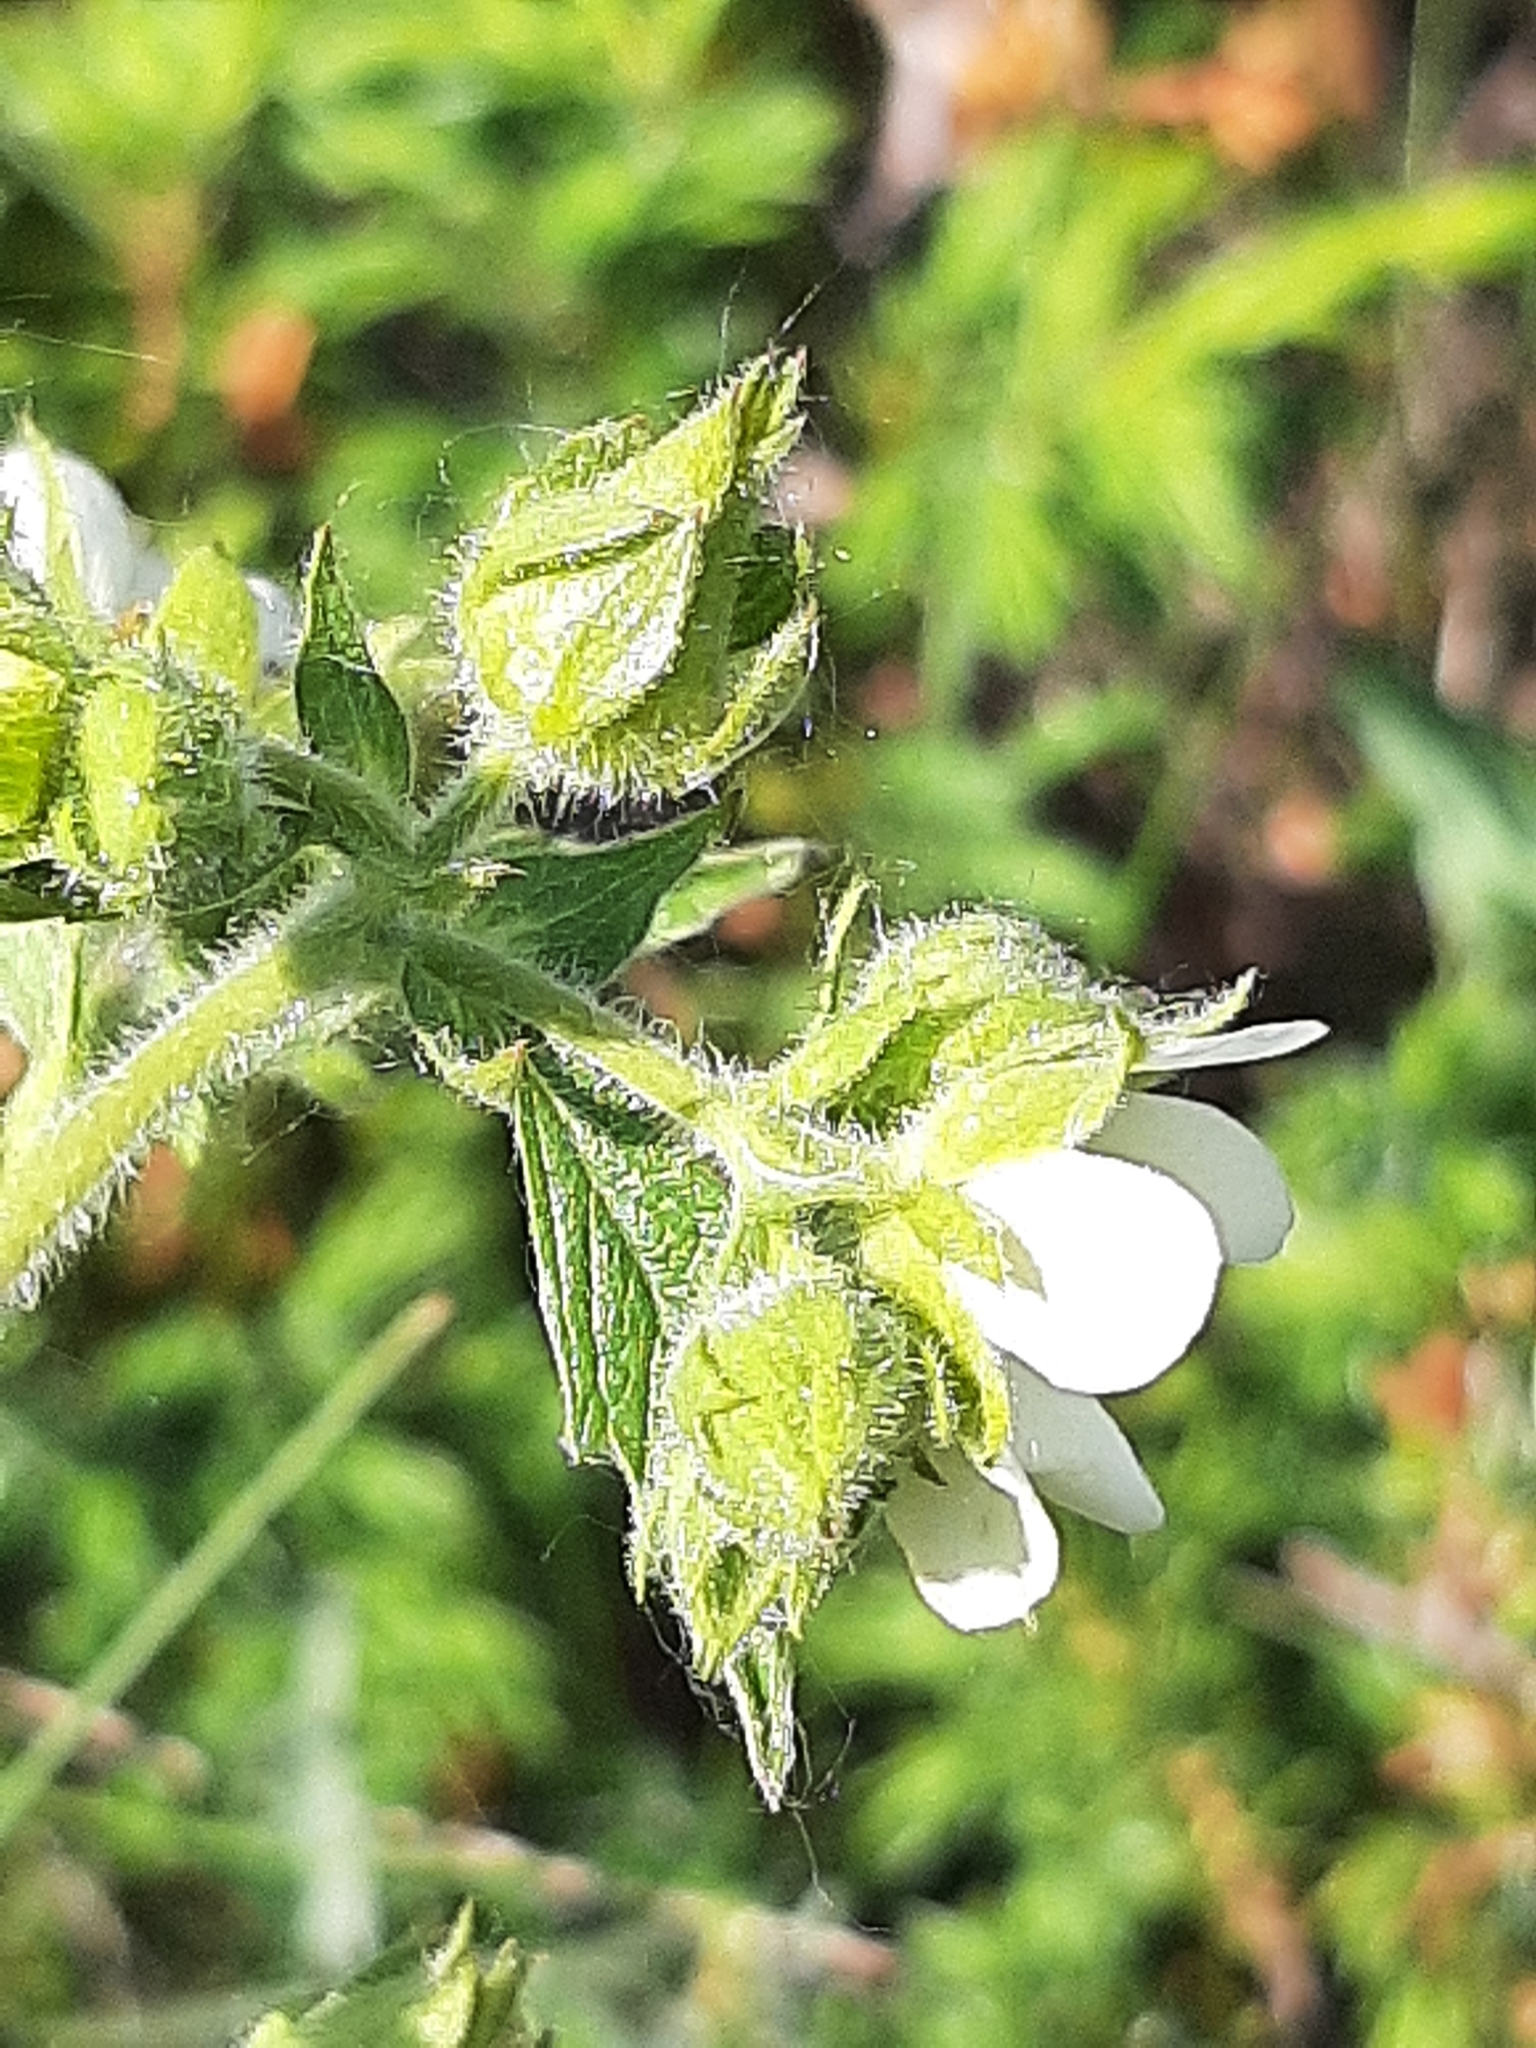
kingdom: Plantae
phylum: Tracheophyta
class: Magnoliopsida
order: Rosales
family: Rosaceae
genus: Drymocallis
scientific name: Drymocallis arguta
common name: Tall cinquefoil
